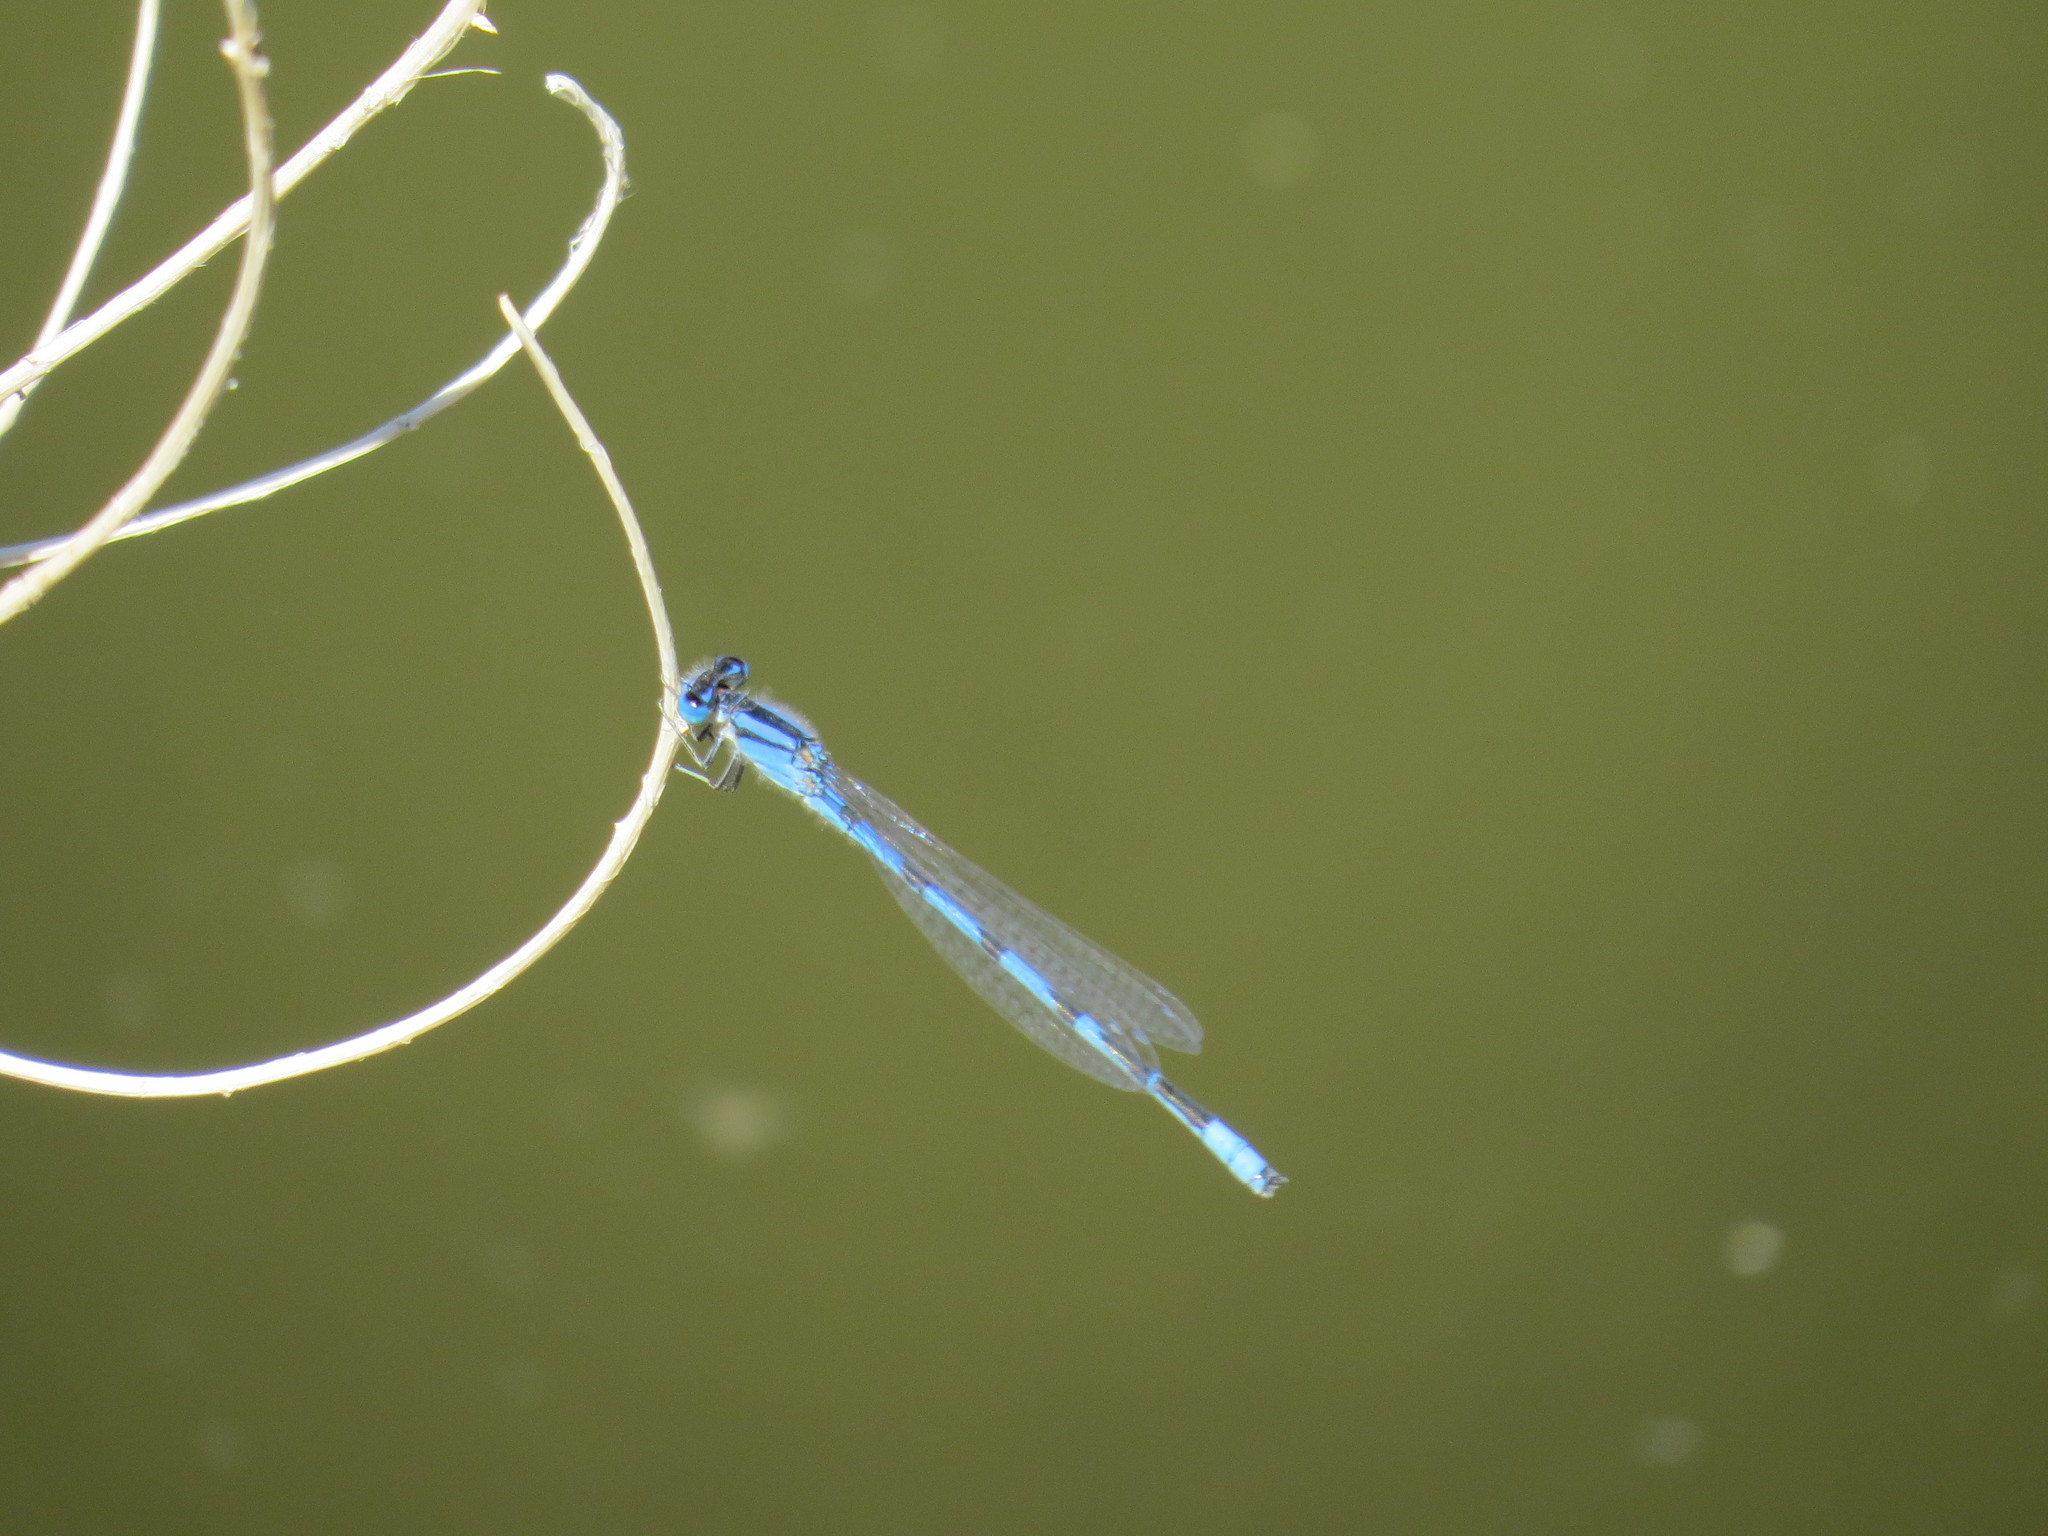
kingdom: Animalia
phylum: Arthropoda
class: Insecta
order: Odonata
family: Coenagrionidae
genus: Enallagma
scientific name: Enallagma civile
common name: Damselfly
